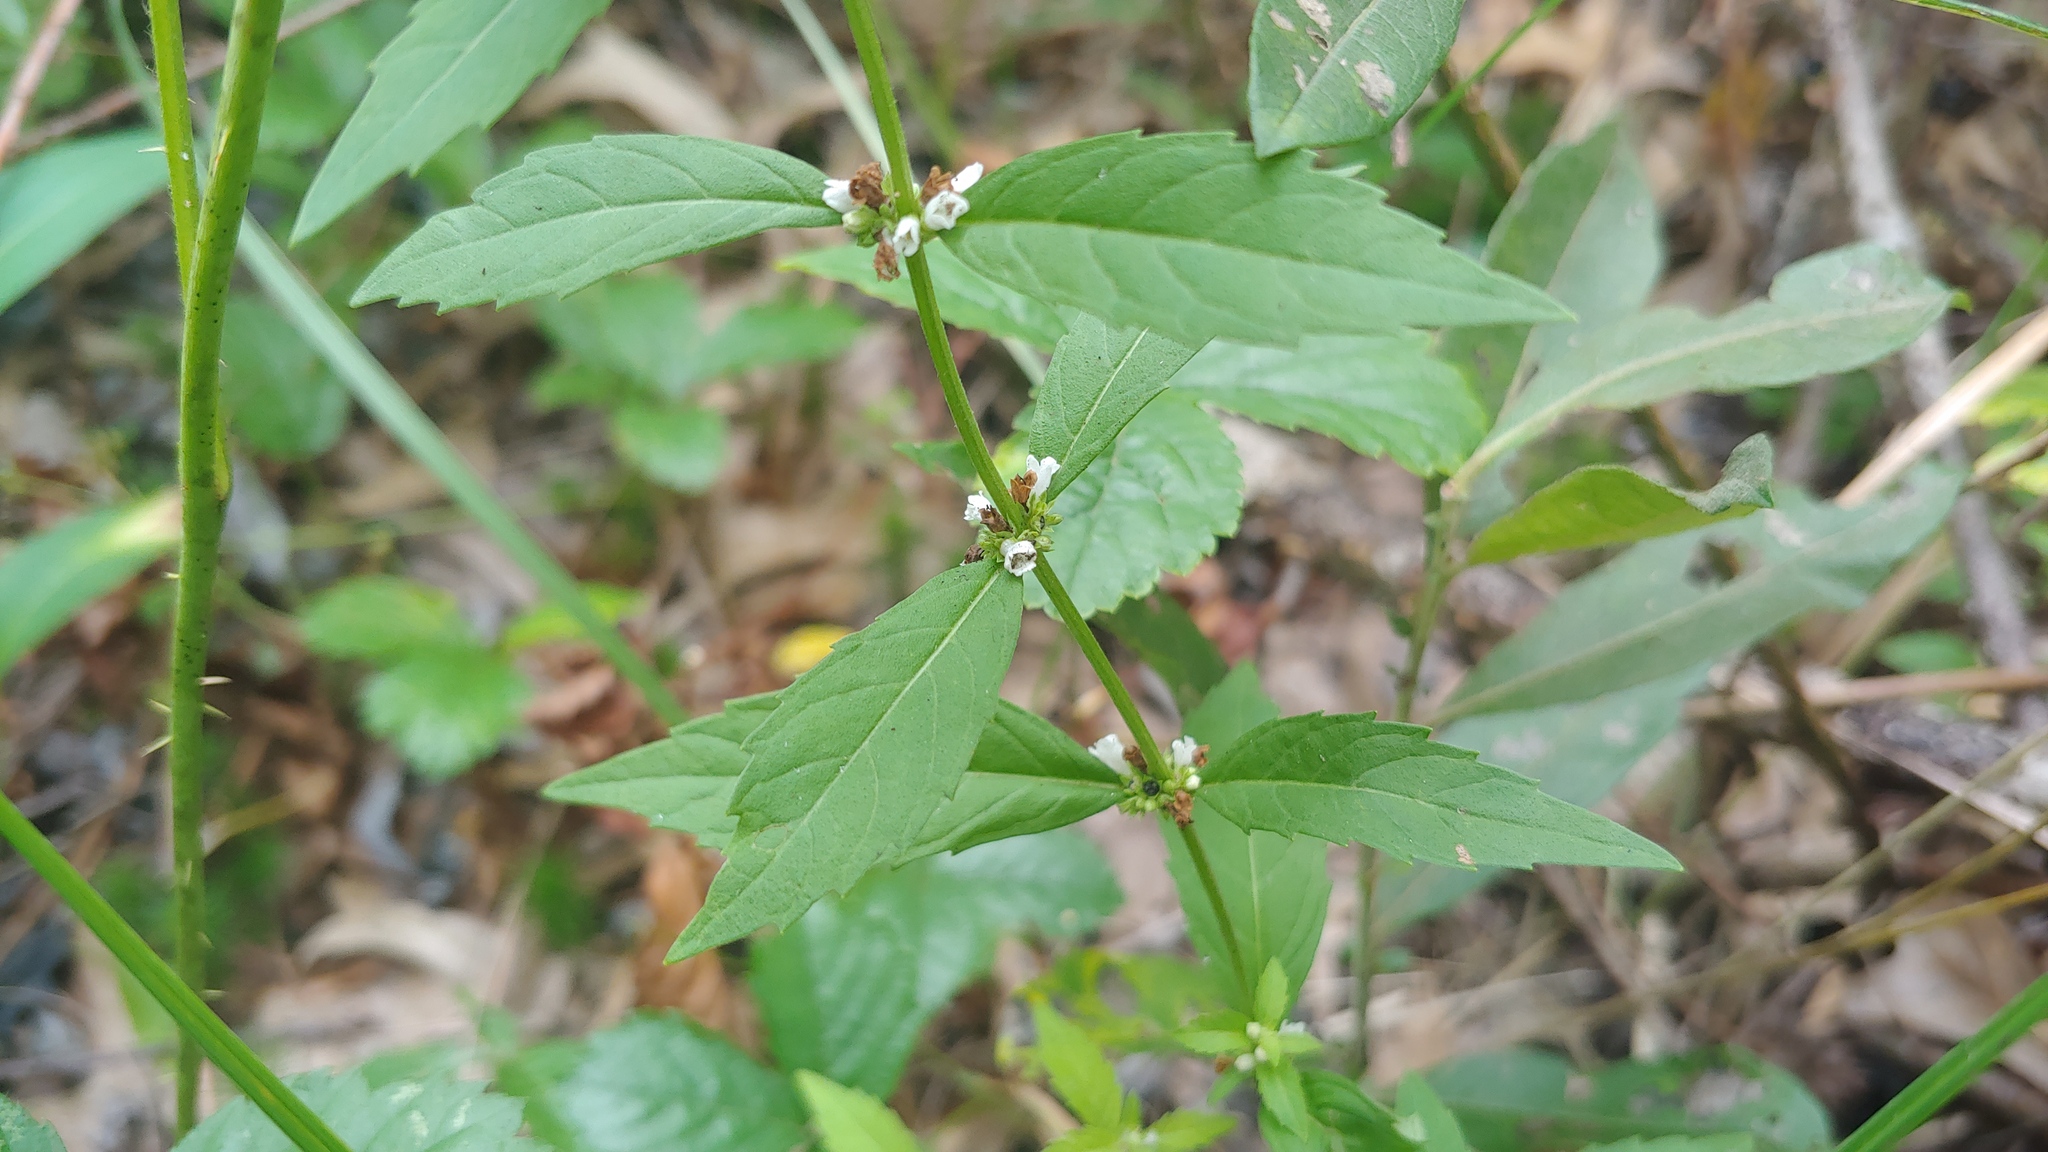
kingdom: Plantae
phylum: Tracheophyta
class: Magnoliopsida
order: Lamiales
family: Lamiaceae
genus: Lycopus
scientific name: Lycopus uniflorus
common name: Northern bugleweed
